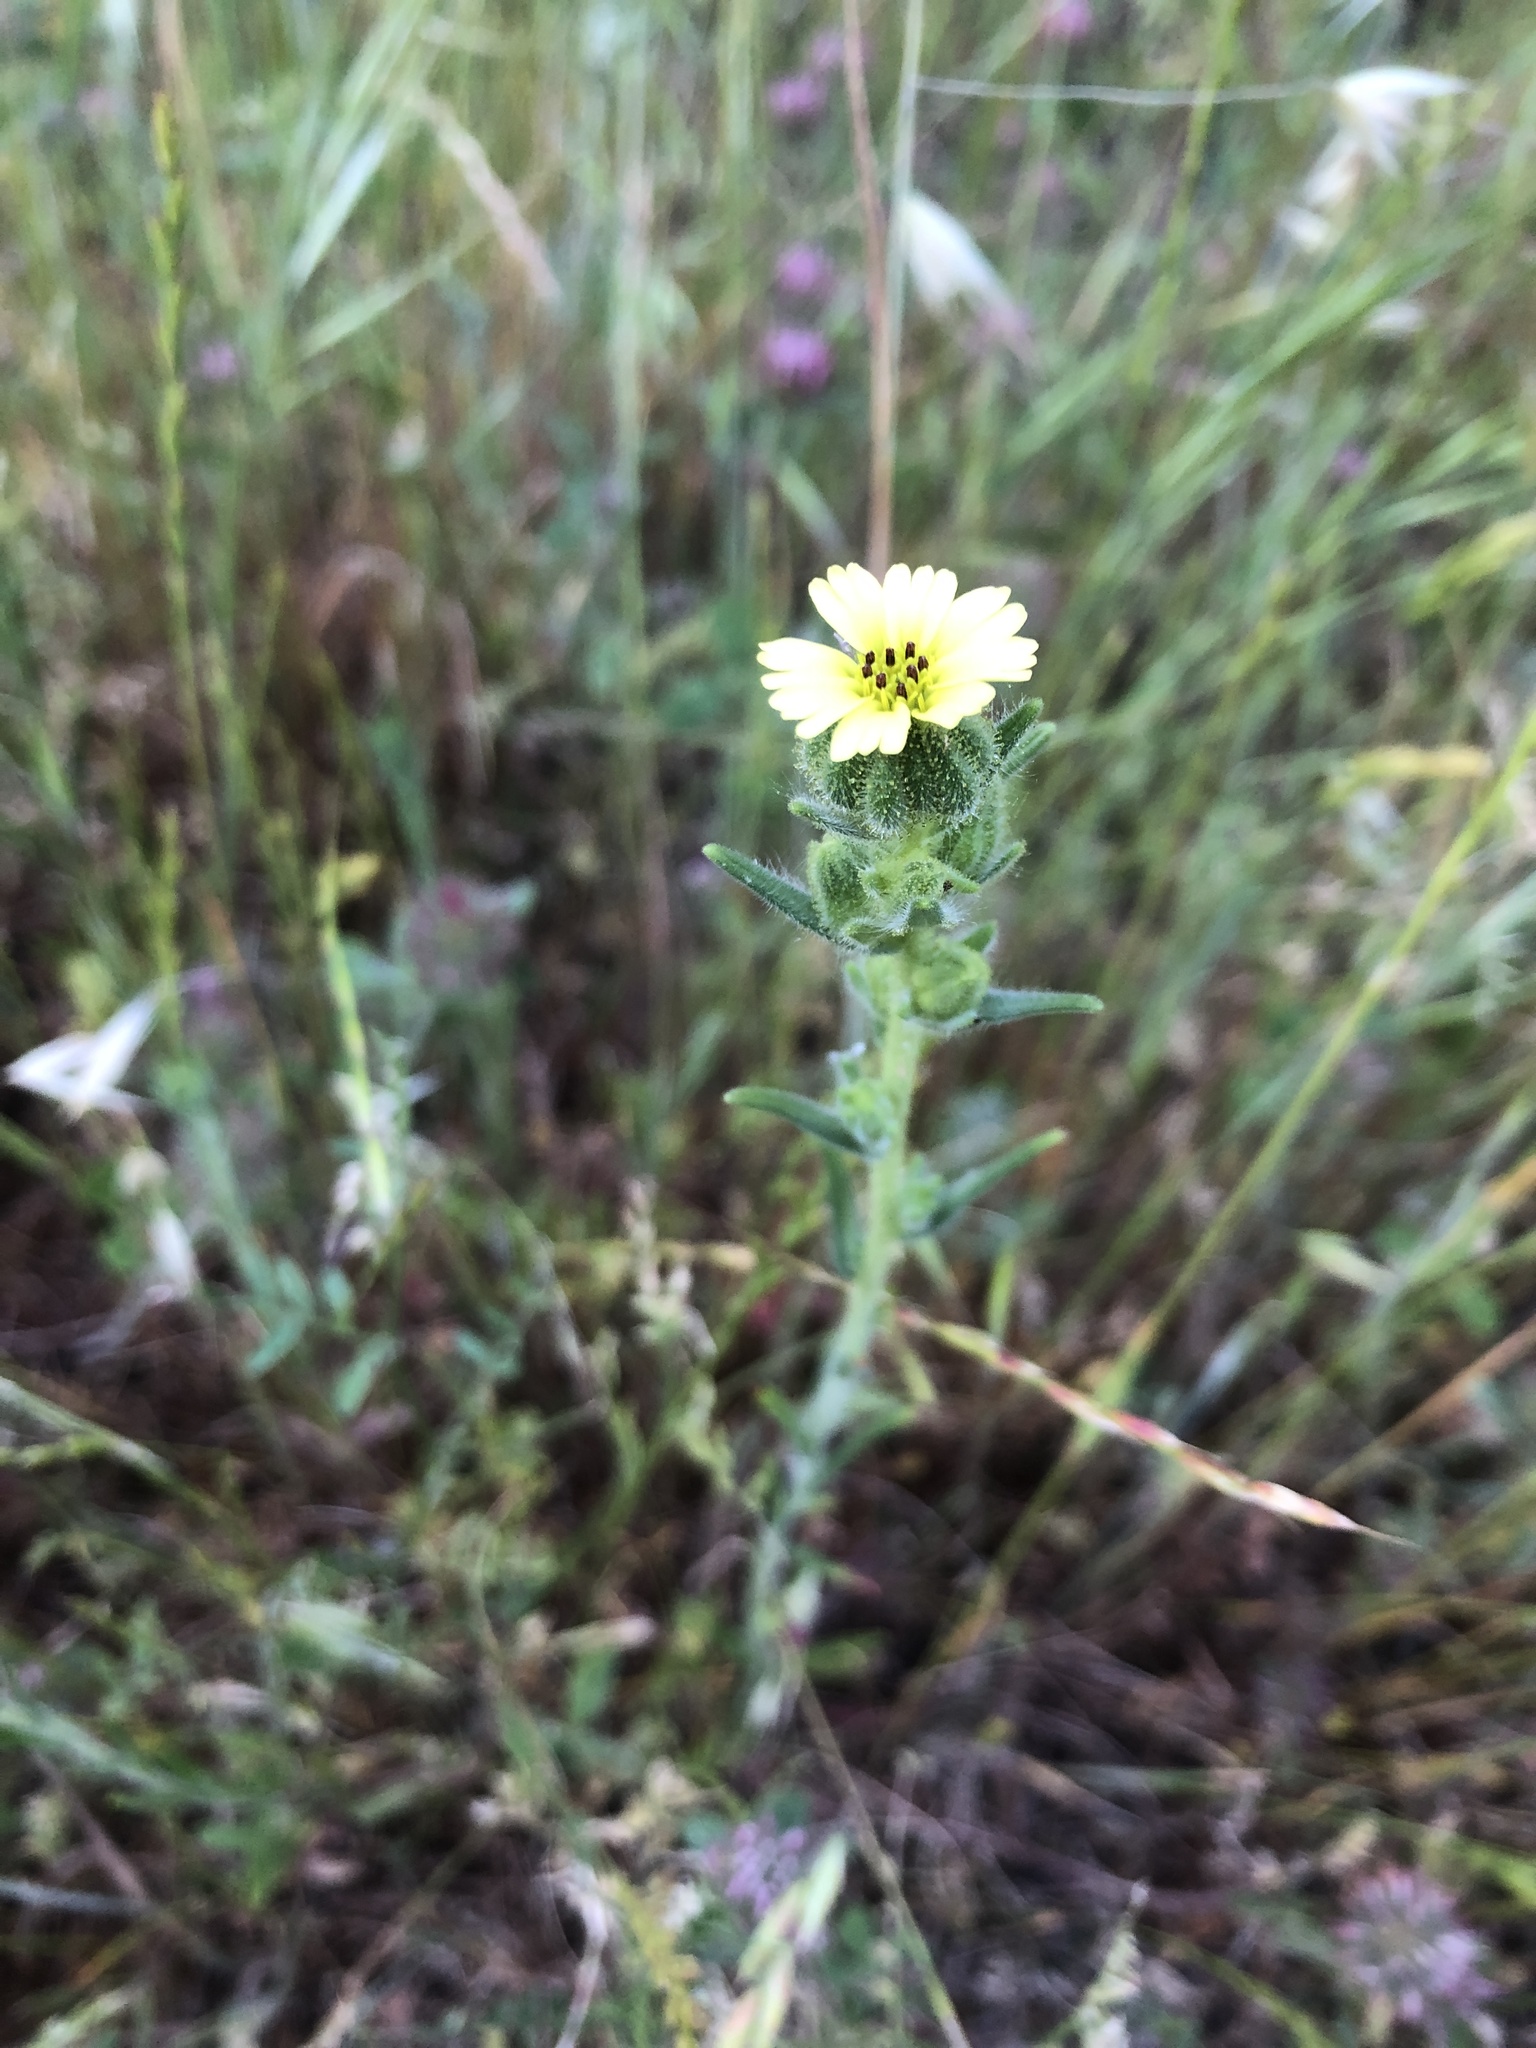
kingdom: Plantae
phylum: Tracheophyta
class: Magnoliopsida
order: Asterales
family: Asteraceae
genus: Madia
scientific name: Madia gracilis
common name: Grassy tarweed
